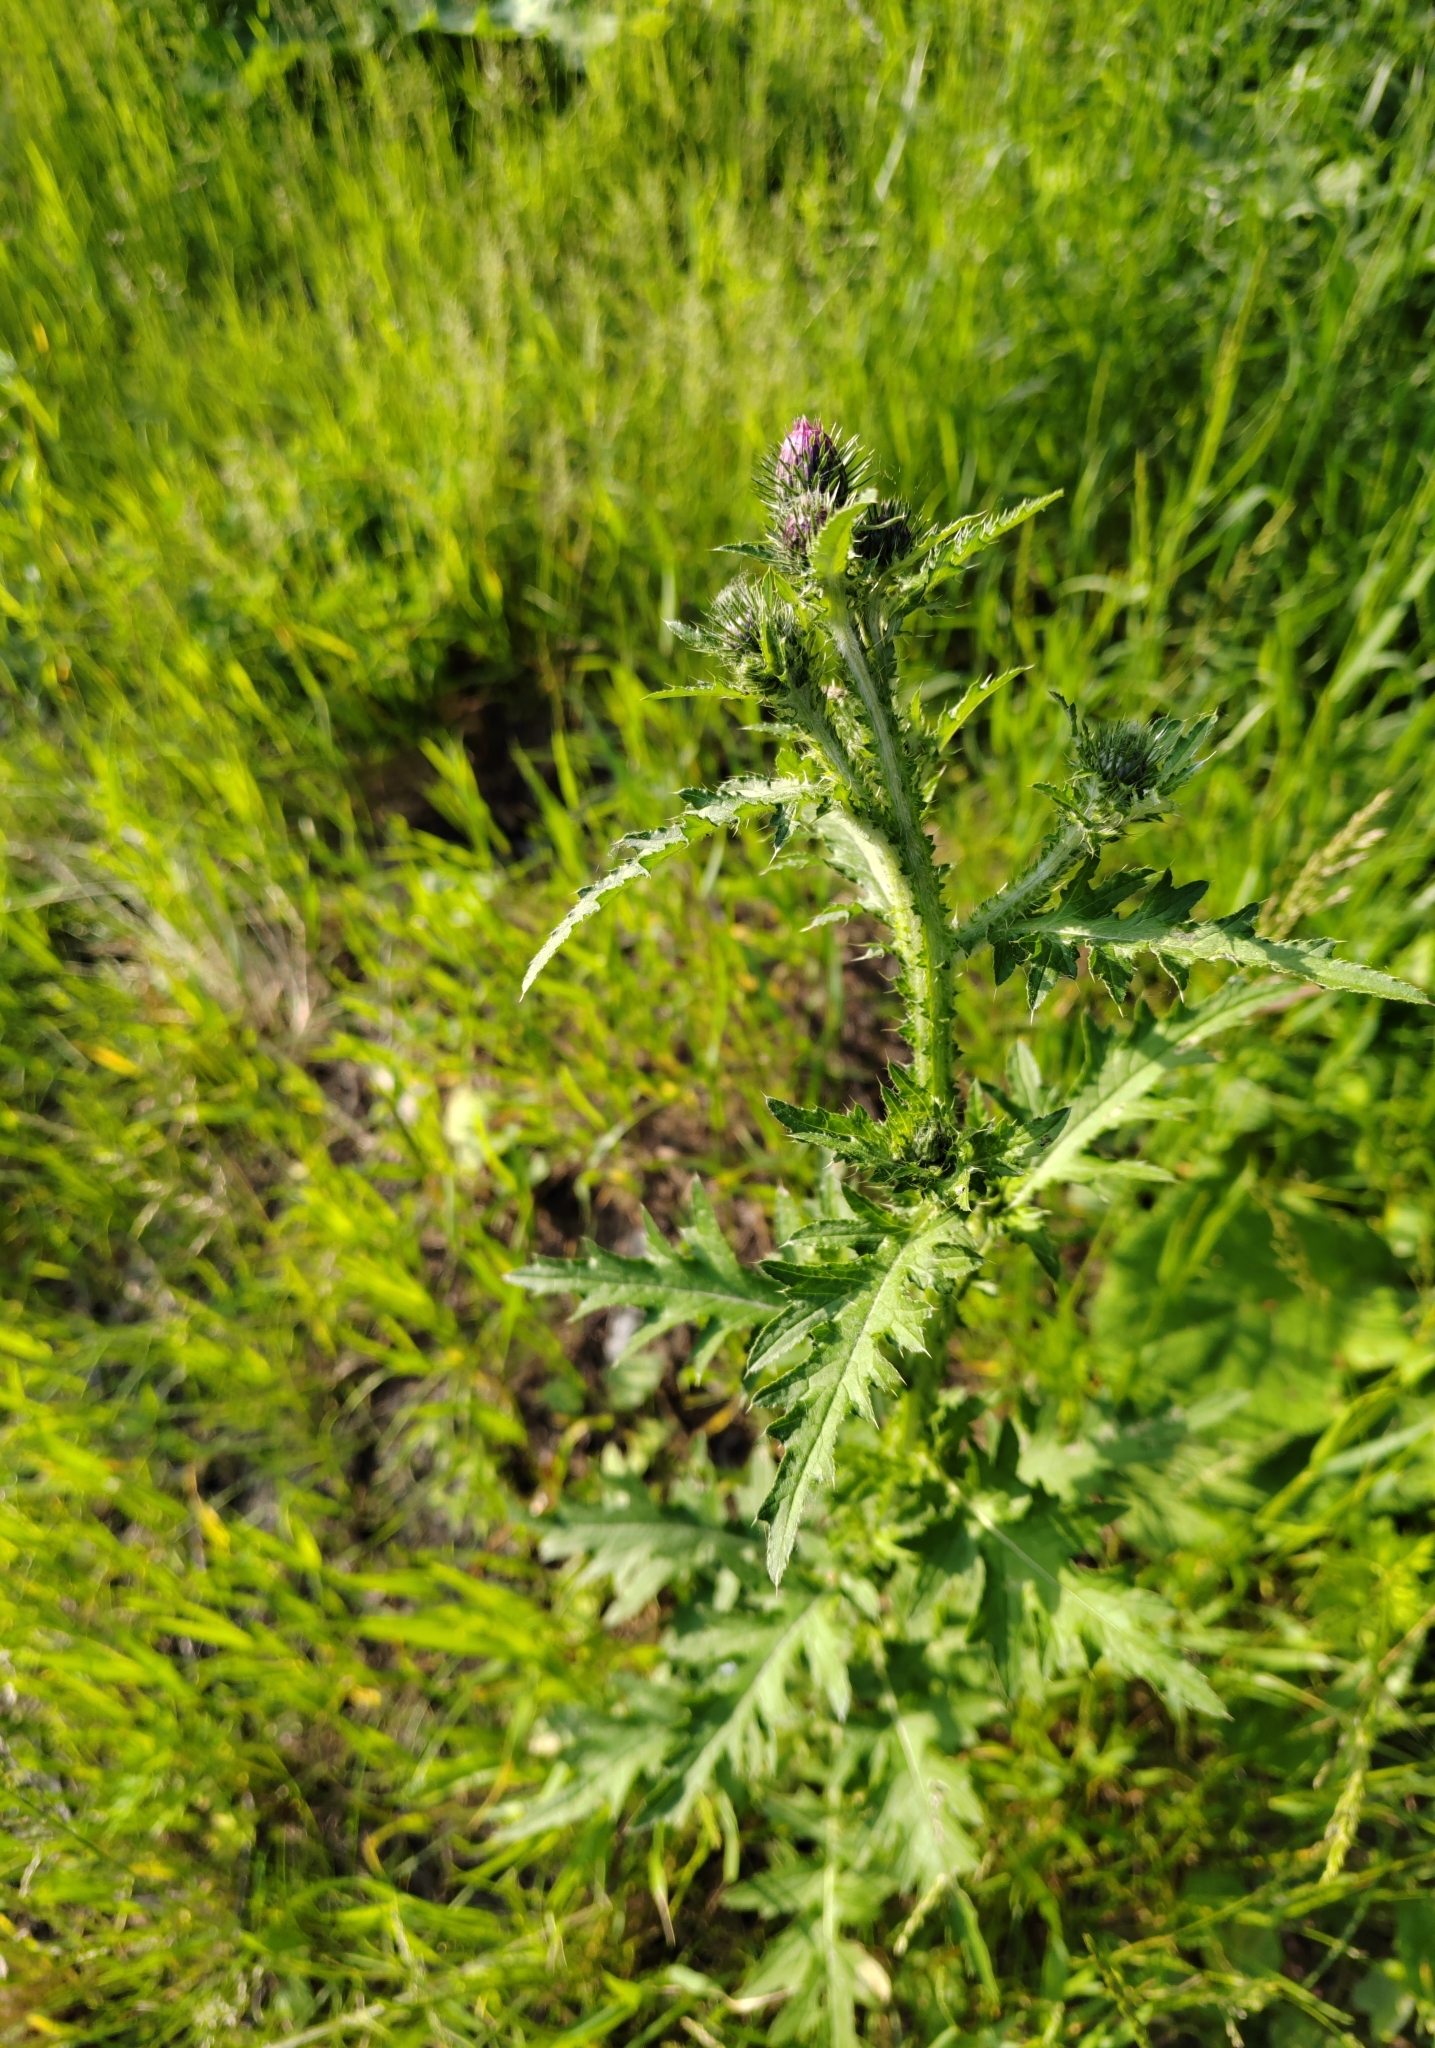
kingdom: Plantae
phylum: Tracheophyta
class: Magnoliopsida
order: Asterales
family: Asteraceae
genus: Carduus
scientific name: Carduus crispus
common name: Welted thistle
